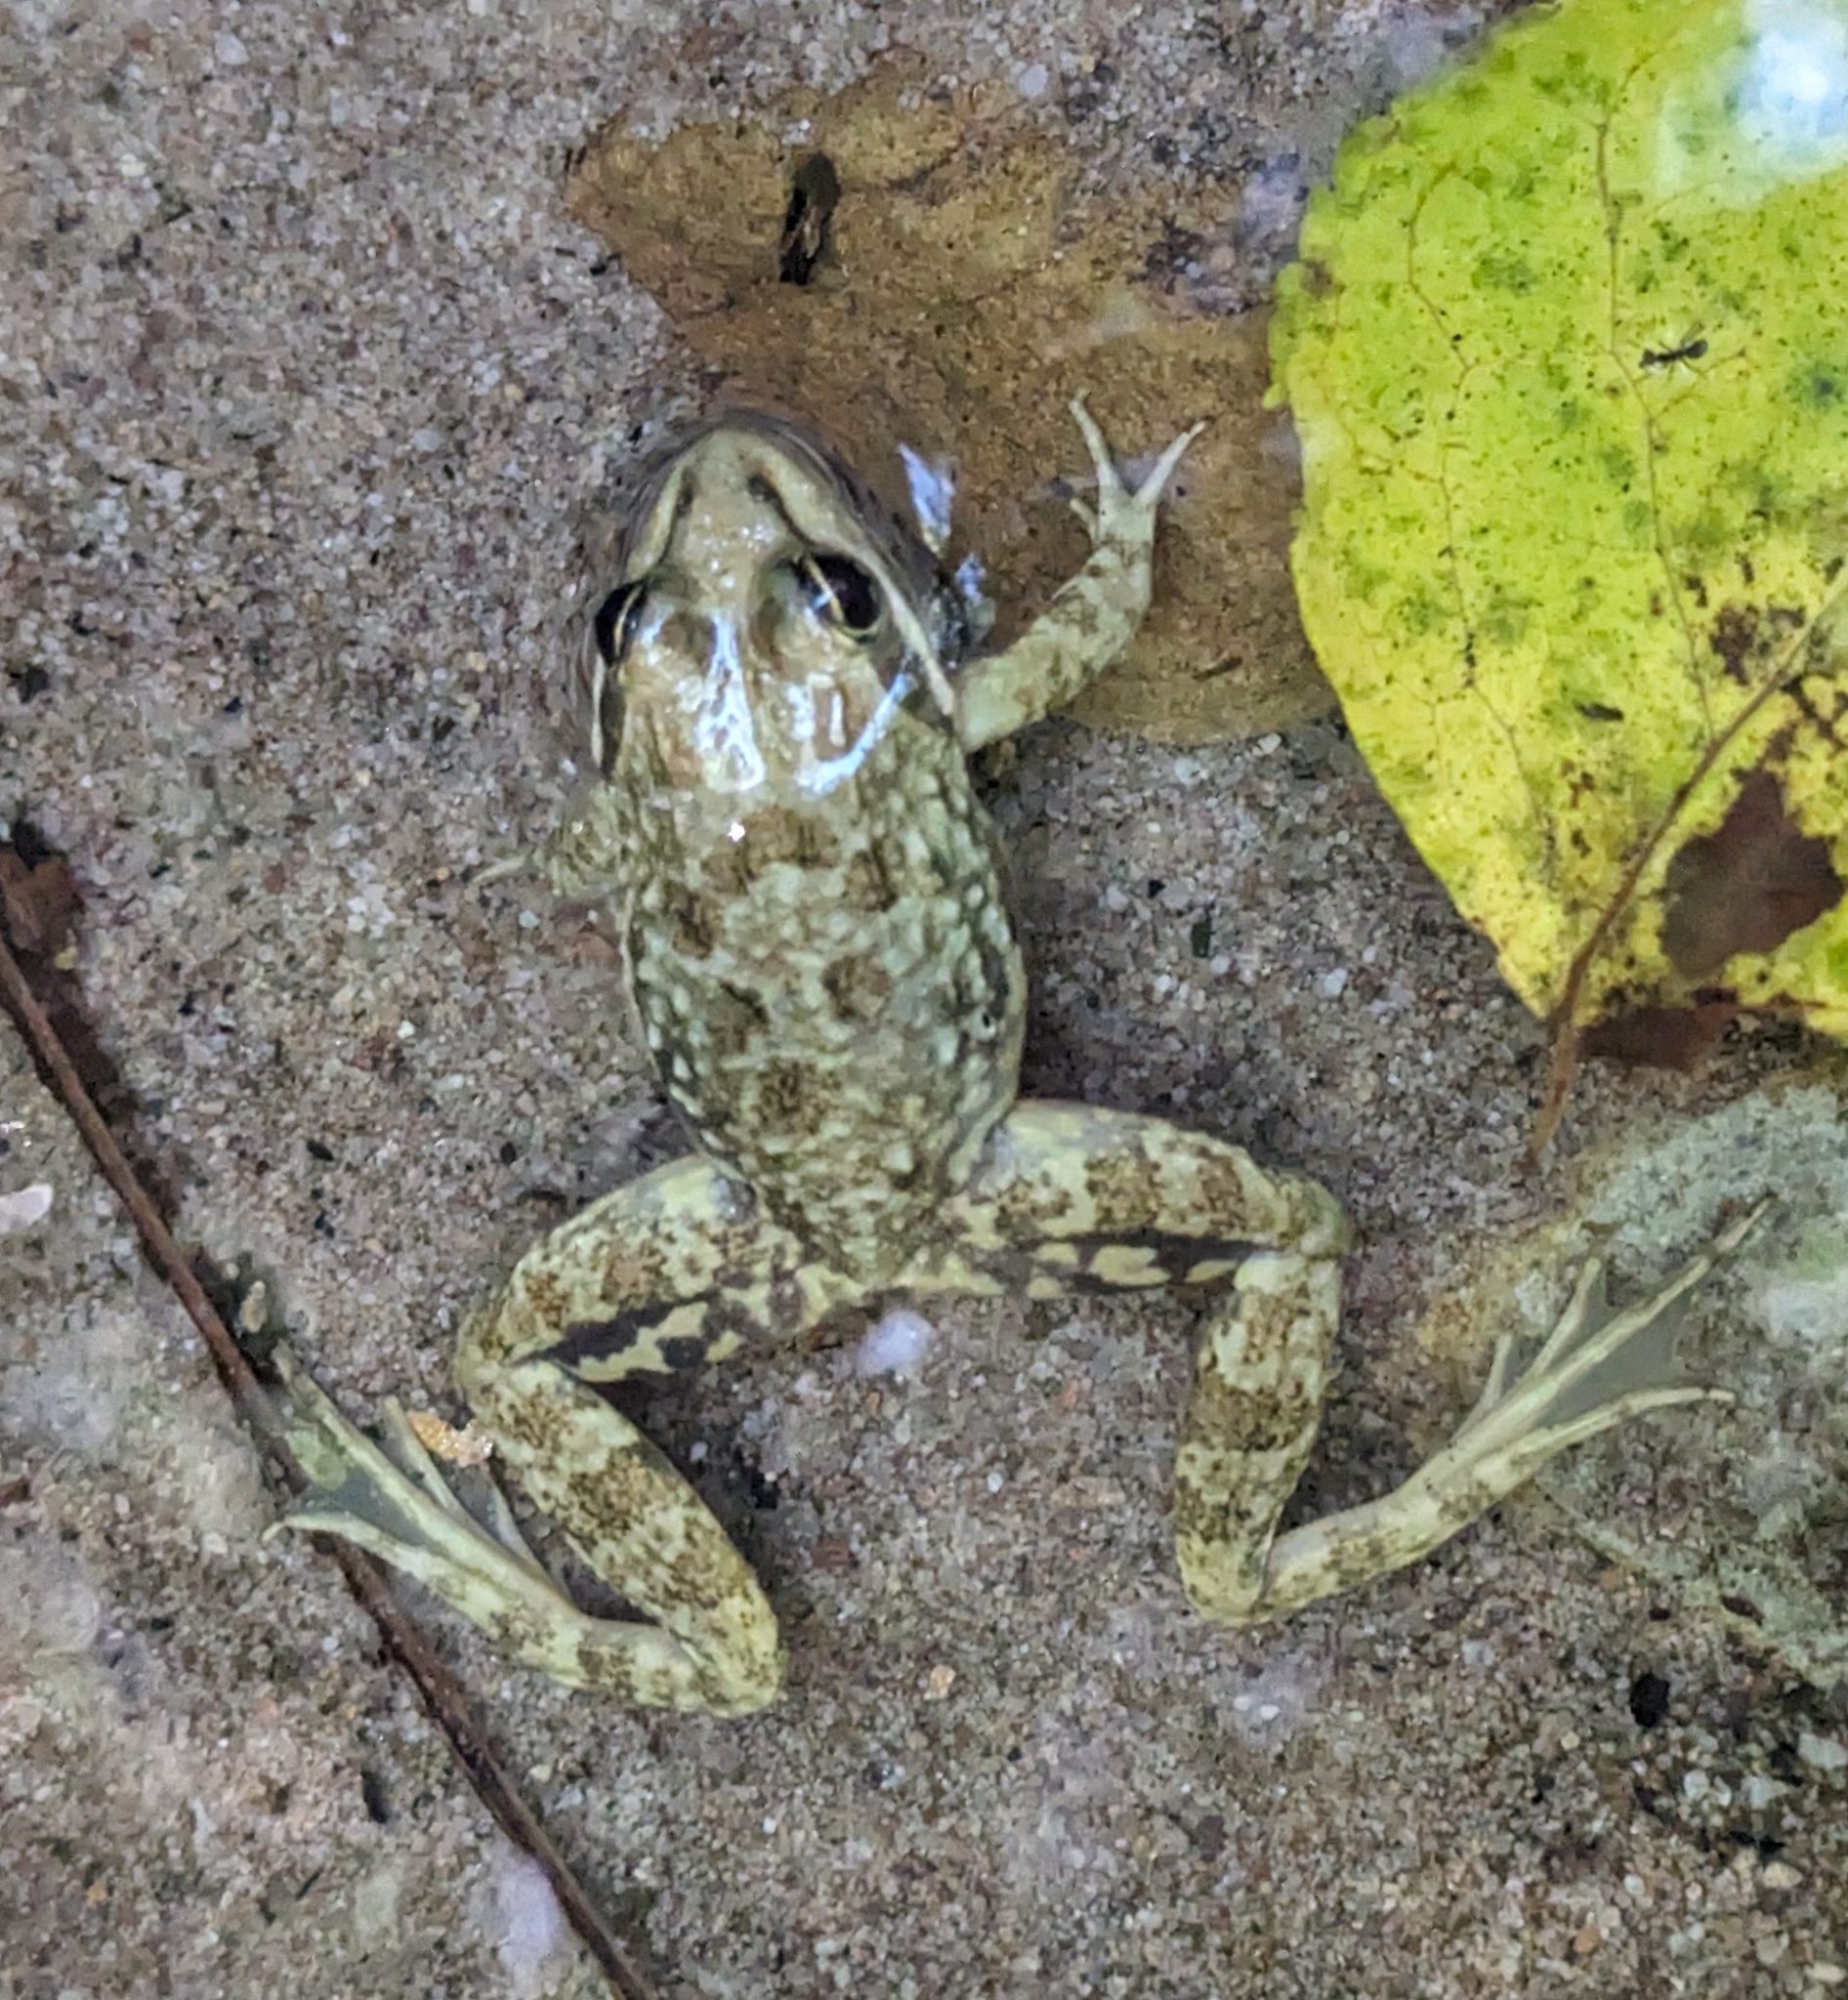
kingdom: Animalia
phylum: Chordata
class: Amphibia
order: Anura
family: Pyxicephalidae
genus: Amietia
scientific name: Amietia fuscigula
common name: Cape rana
